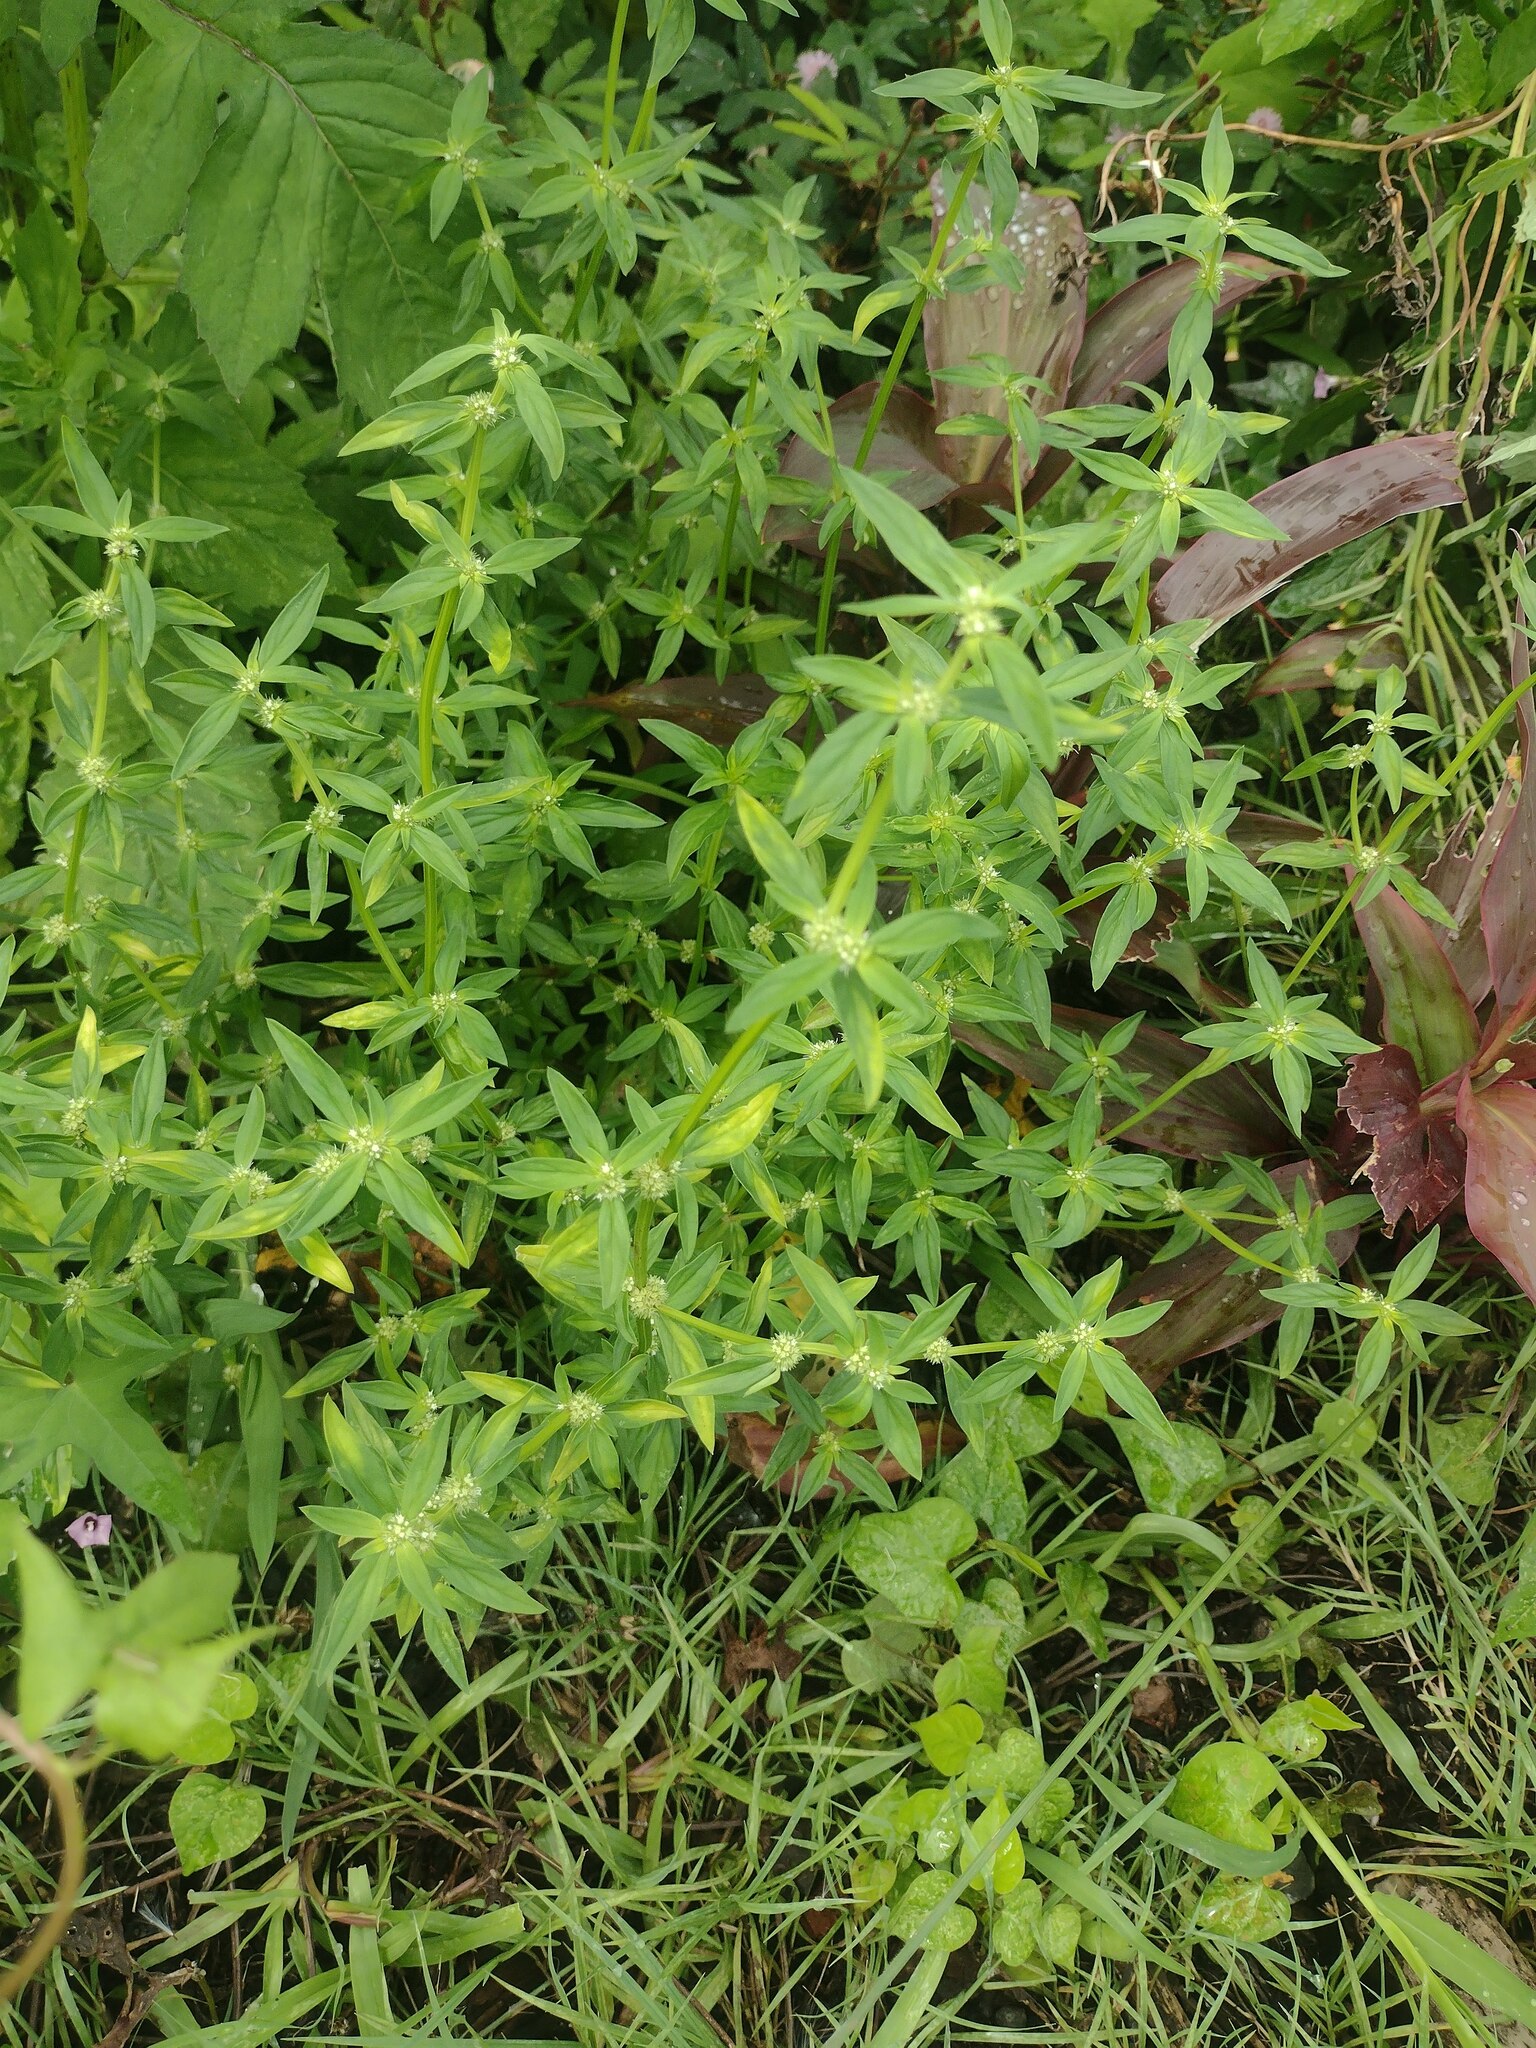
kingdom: Plantae
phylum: Tracheophyta
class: Magnoliopsida
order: Gentianales
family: Rubiaceae
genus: Spermacoce
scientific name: Spermacoce prostrata
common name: Prostrate false buttonweed
